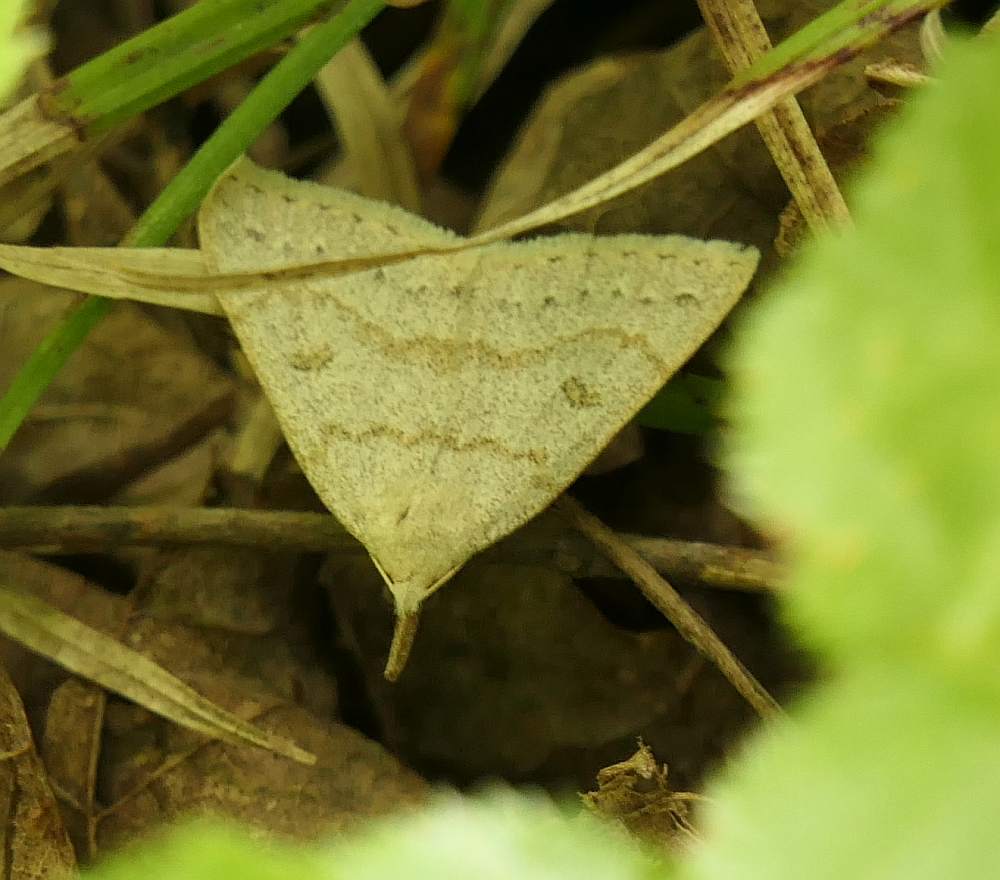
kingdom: Animalia
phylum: Arthropoda
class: Insecta
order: Lepidoptera
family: Erebidae
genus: Macrochilo
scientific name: Macrochilo morbidalis
